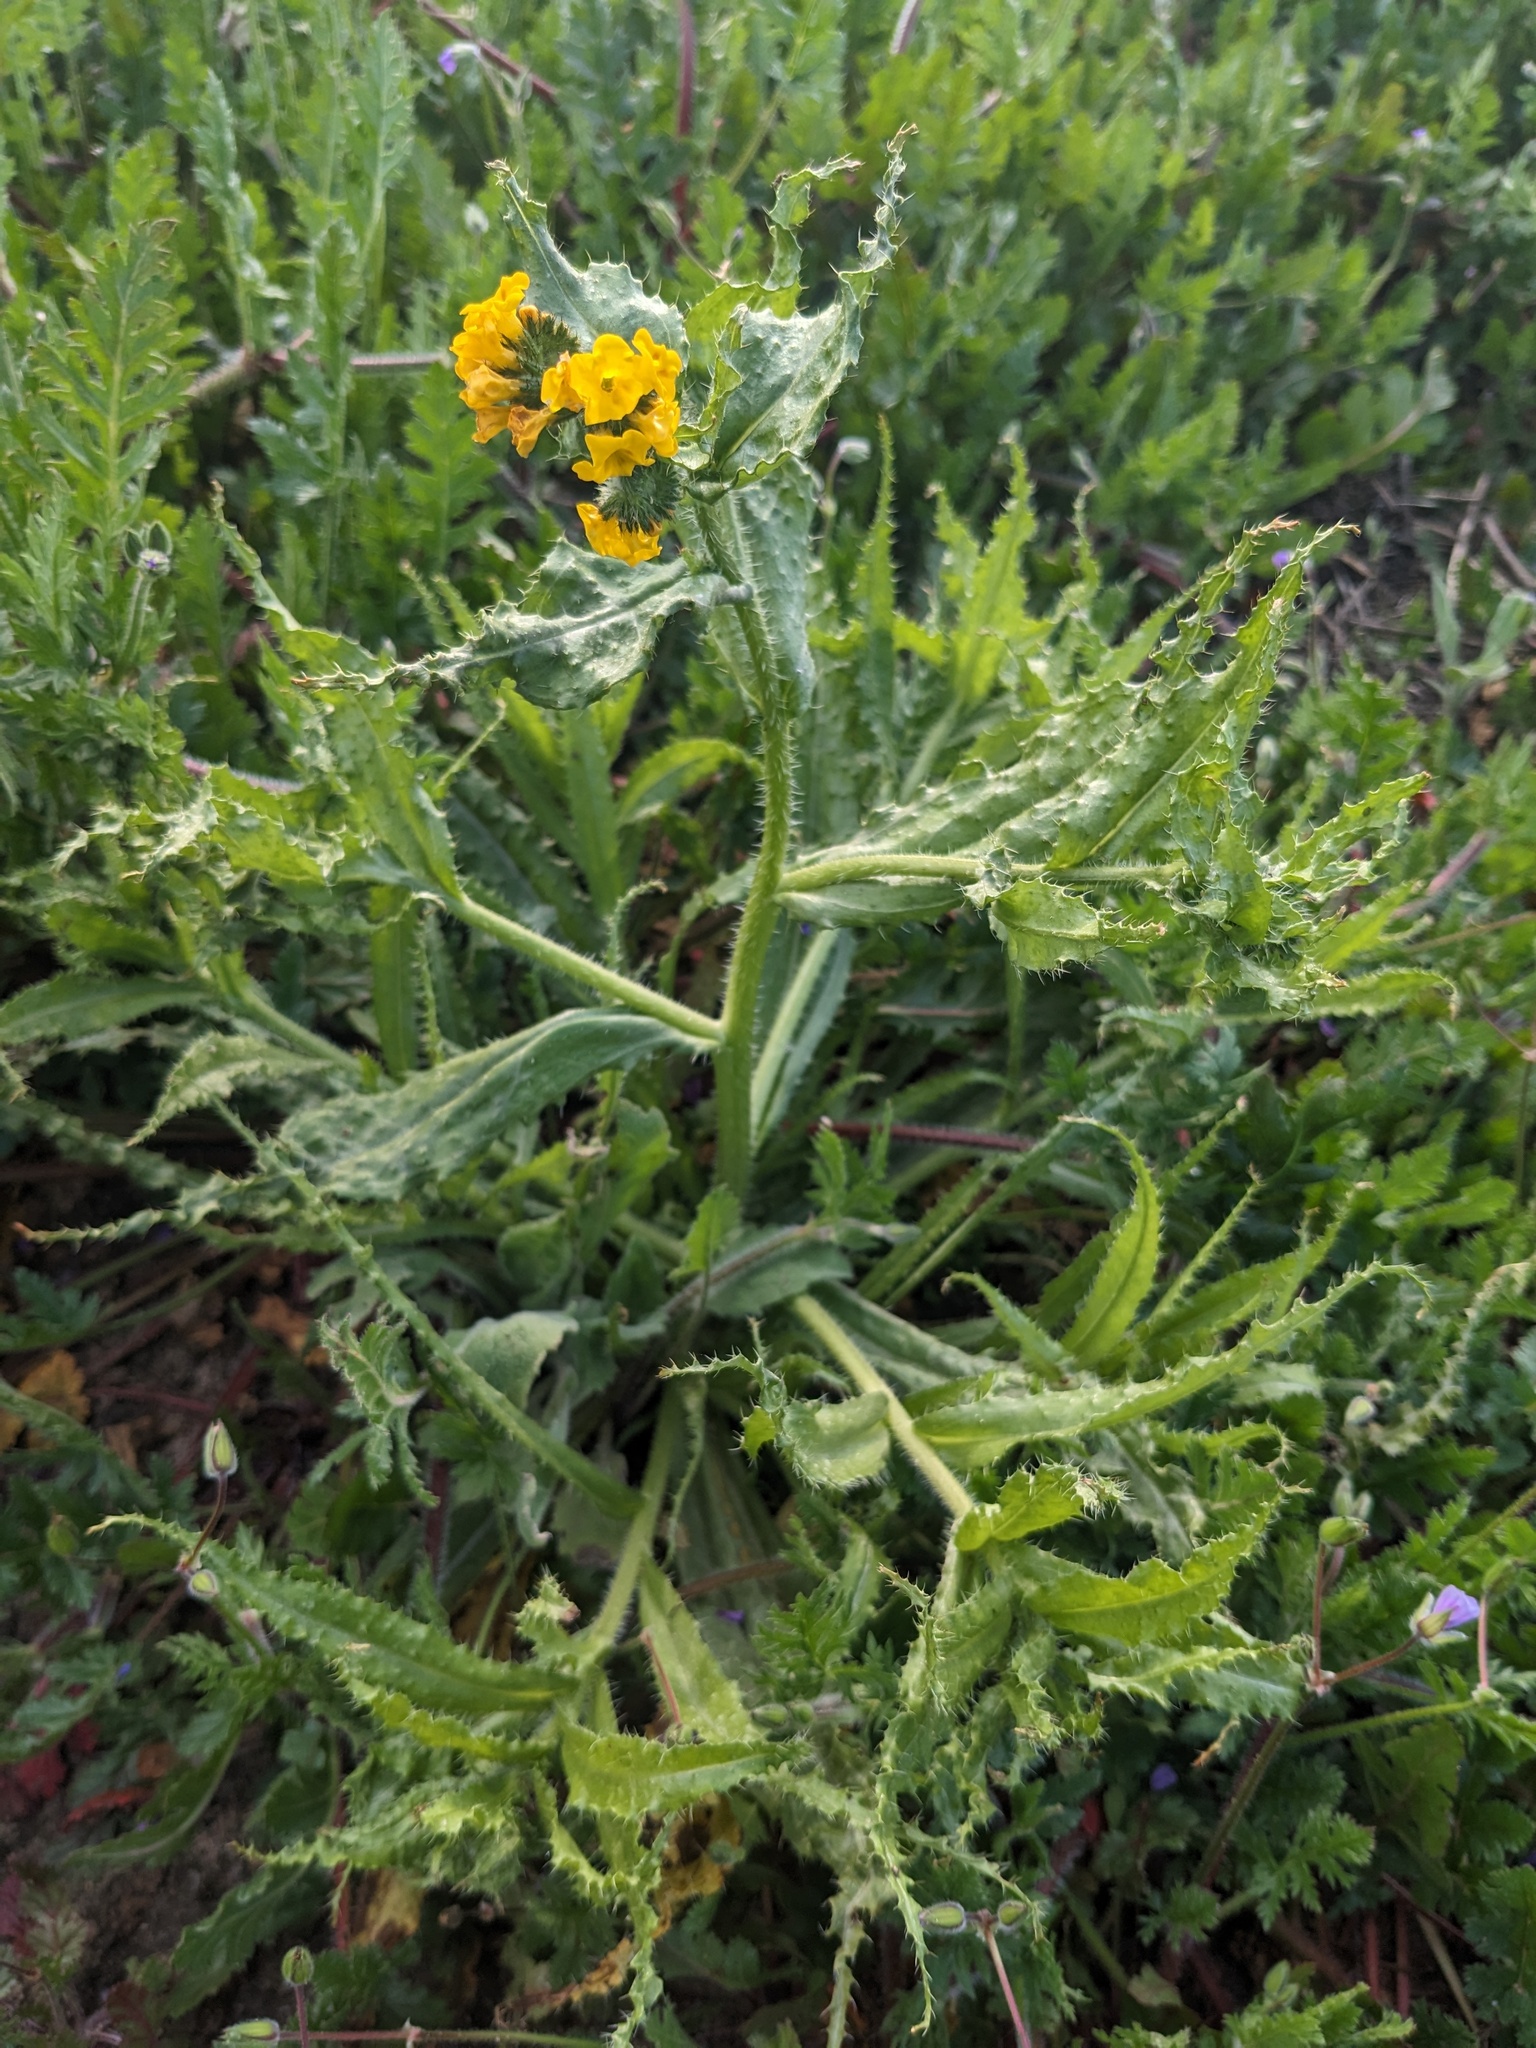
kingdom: Plantae
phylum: Tracheophyta
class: Magnoliopsida
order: Boraginales
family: Boraginaceae
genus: Amsinckia
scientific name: Amsinckia spectabilis
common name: Seaside fiddleneck
